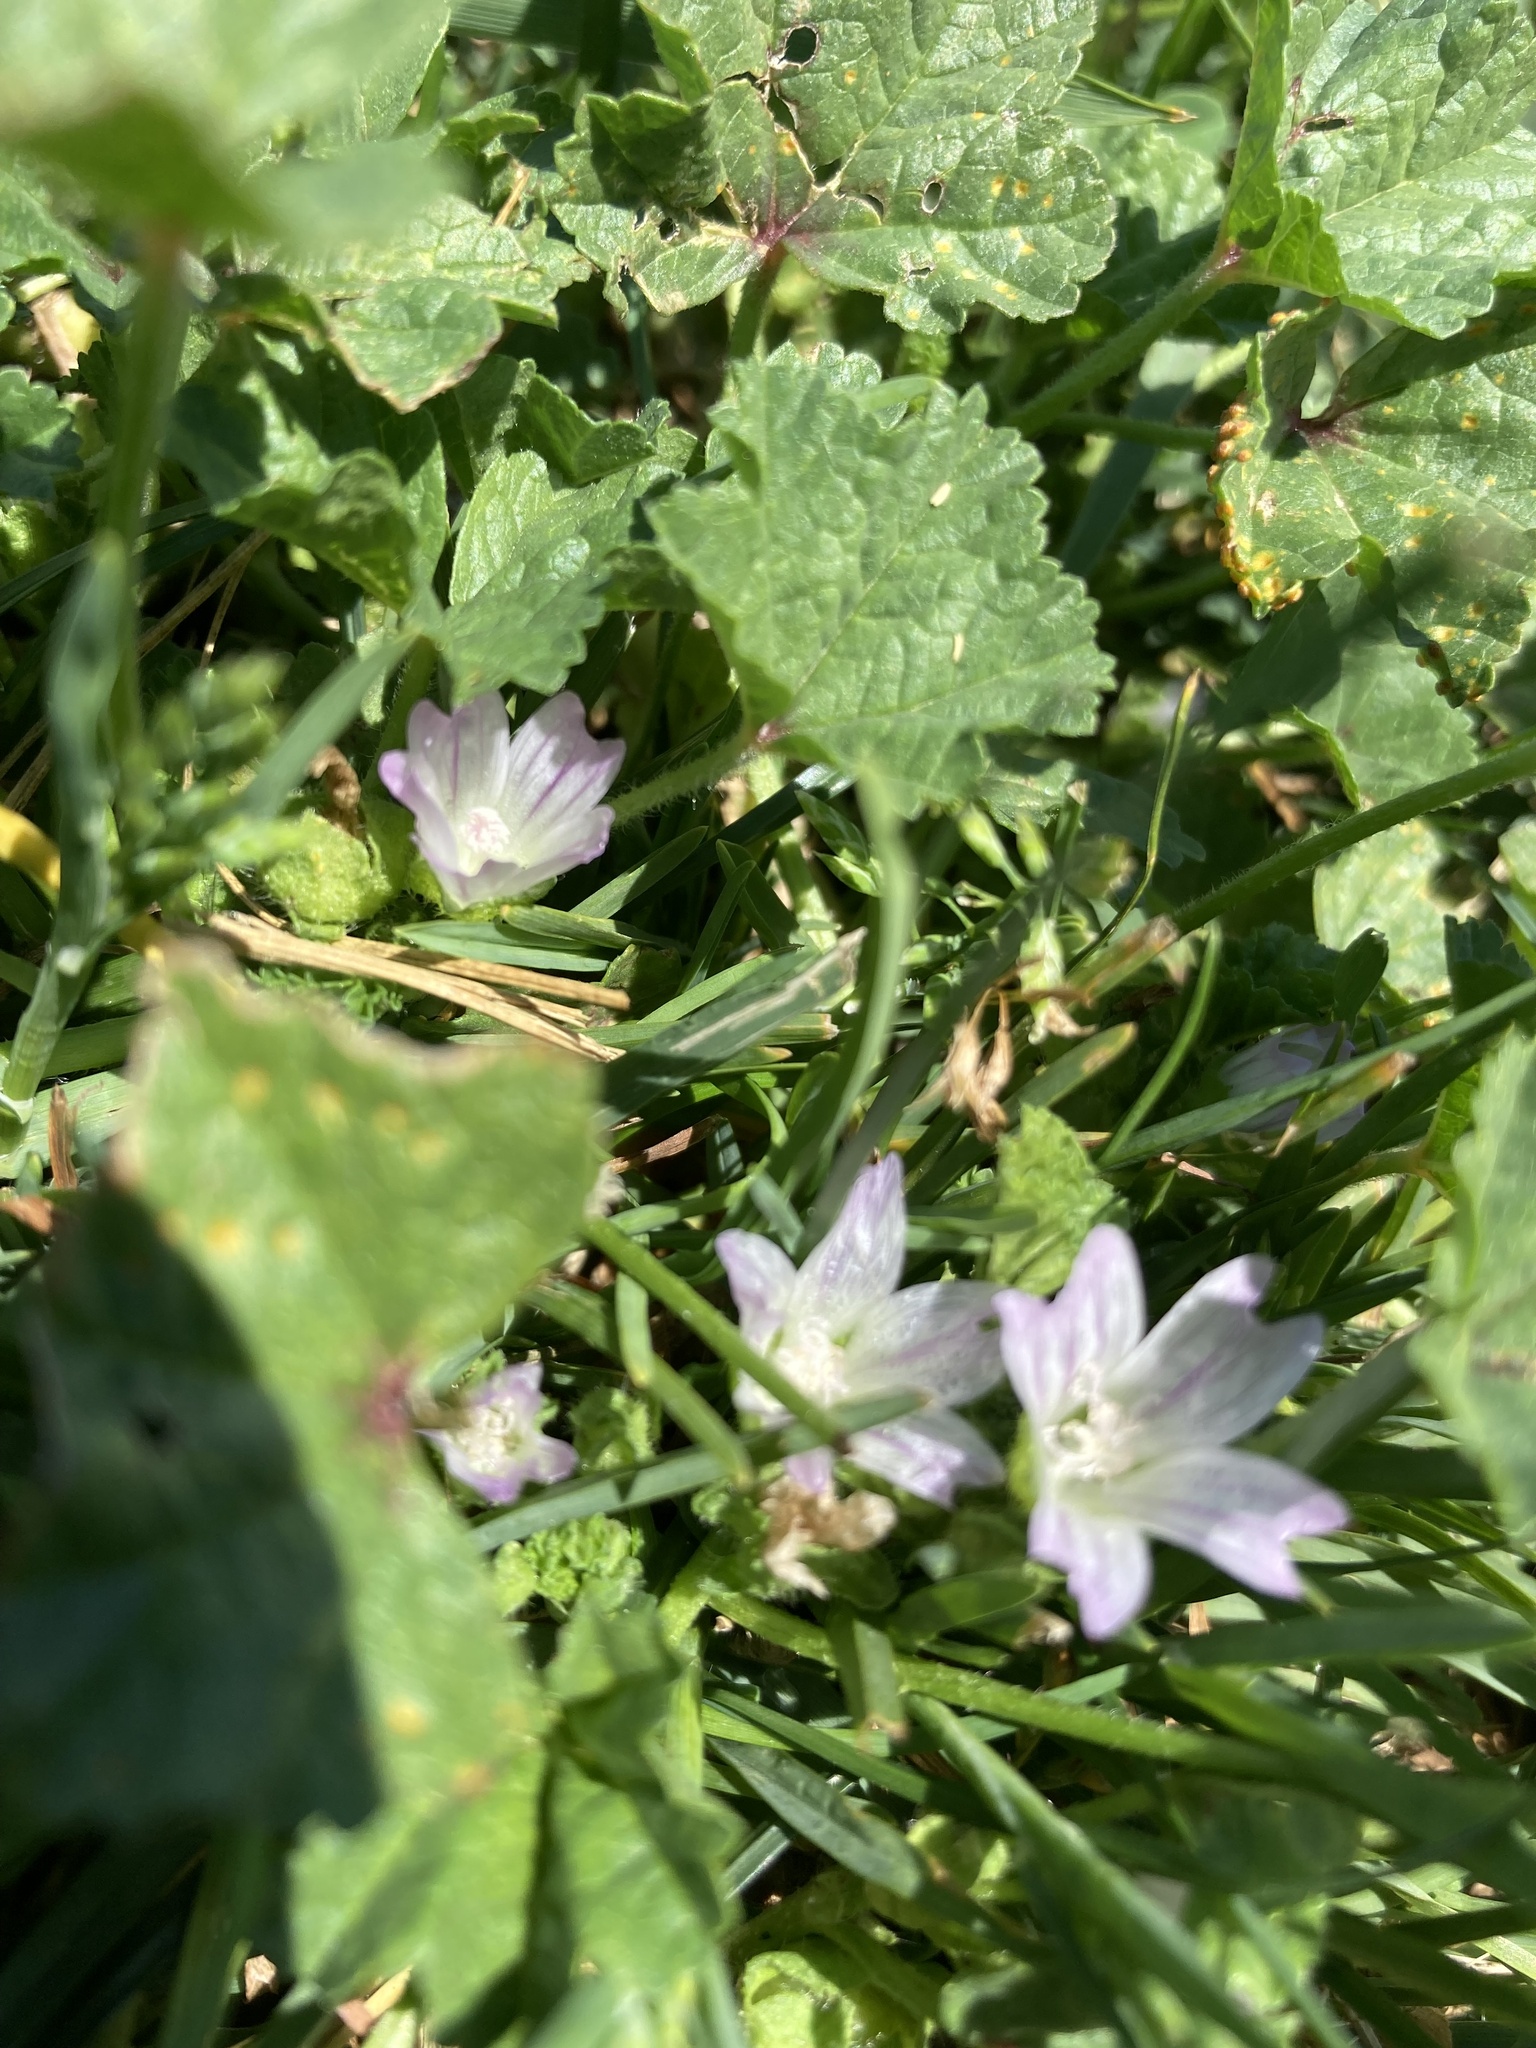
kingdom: Plantae
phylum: Tracheophyta
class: Magnoliopsida
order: Malvales
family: Malvaceae
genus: Malva
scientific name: Malva neglecta
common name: Common mallow
